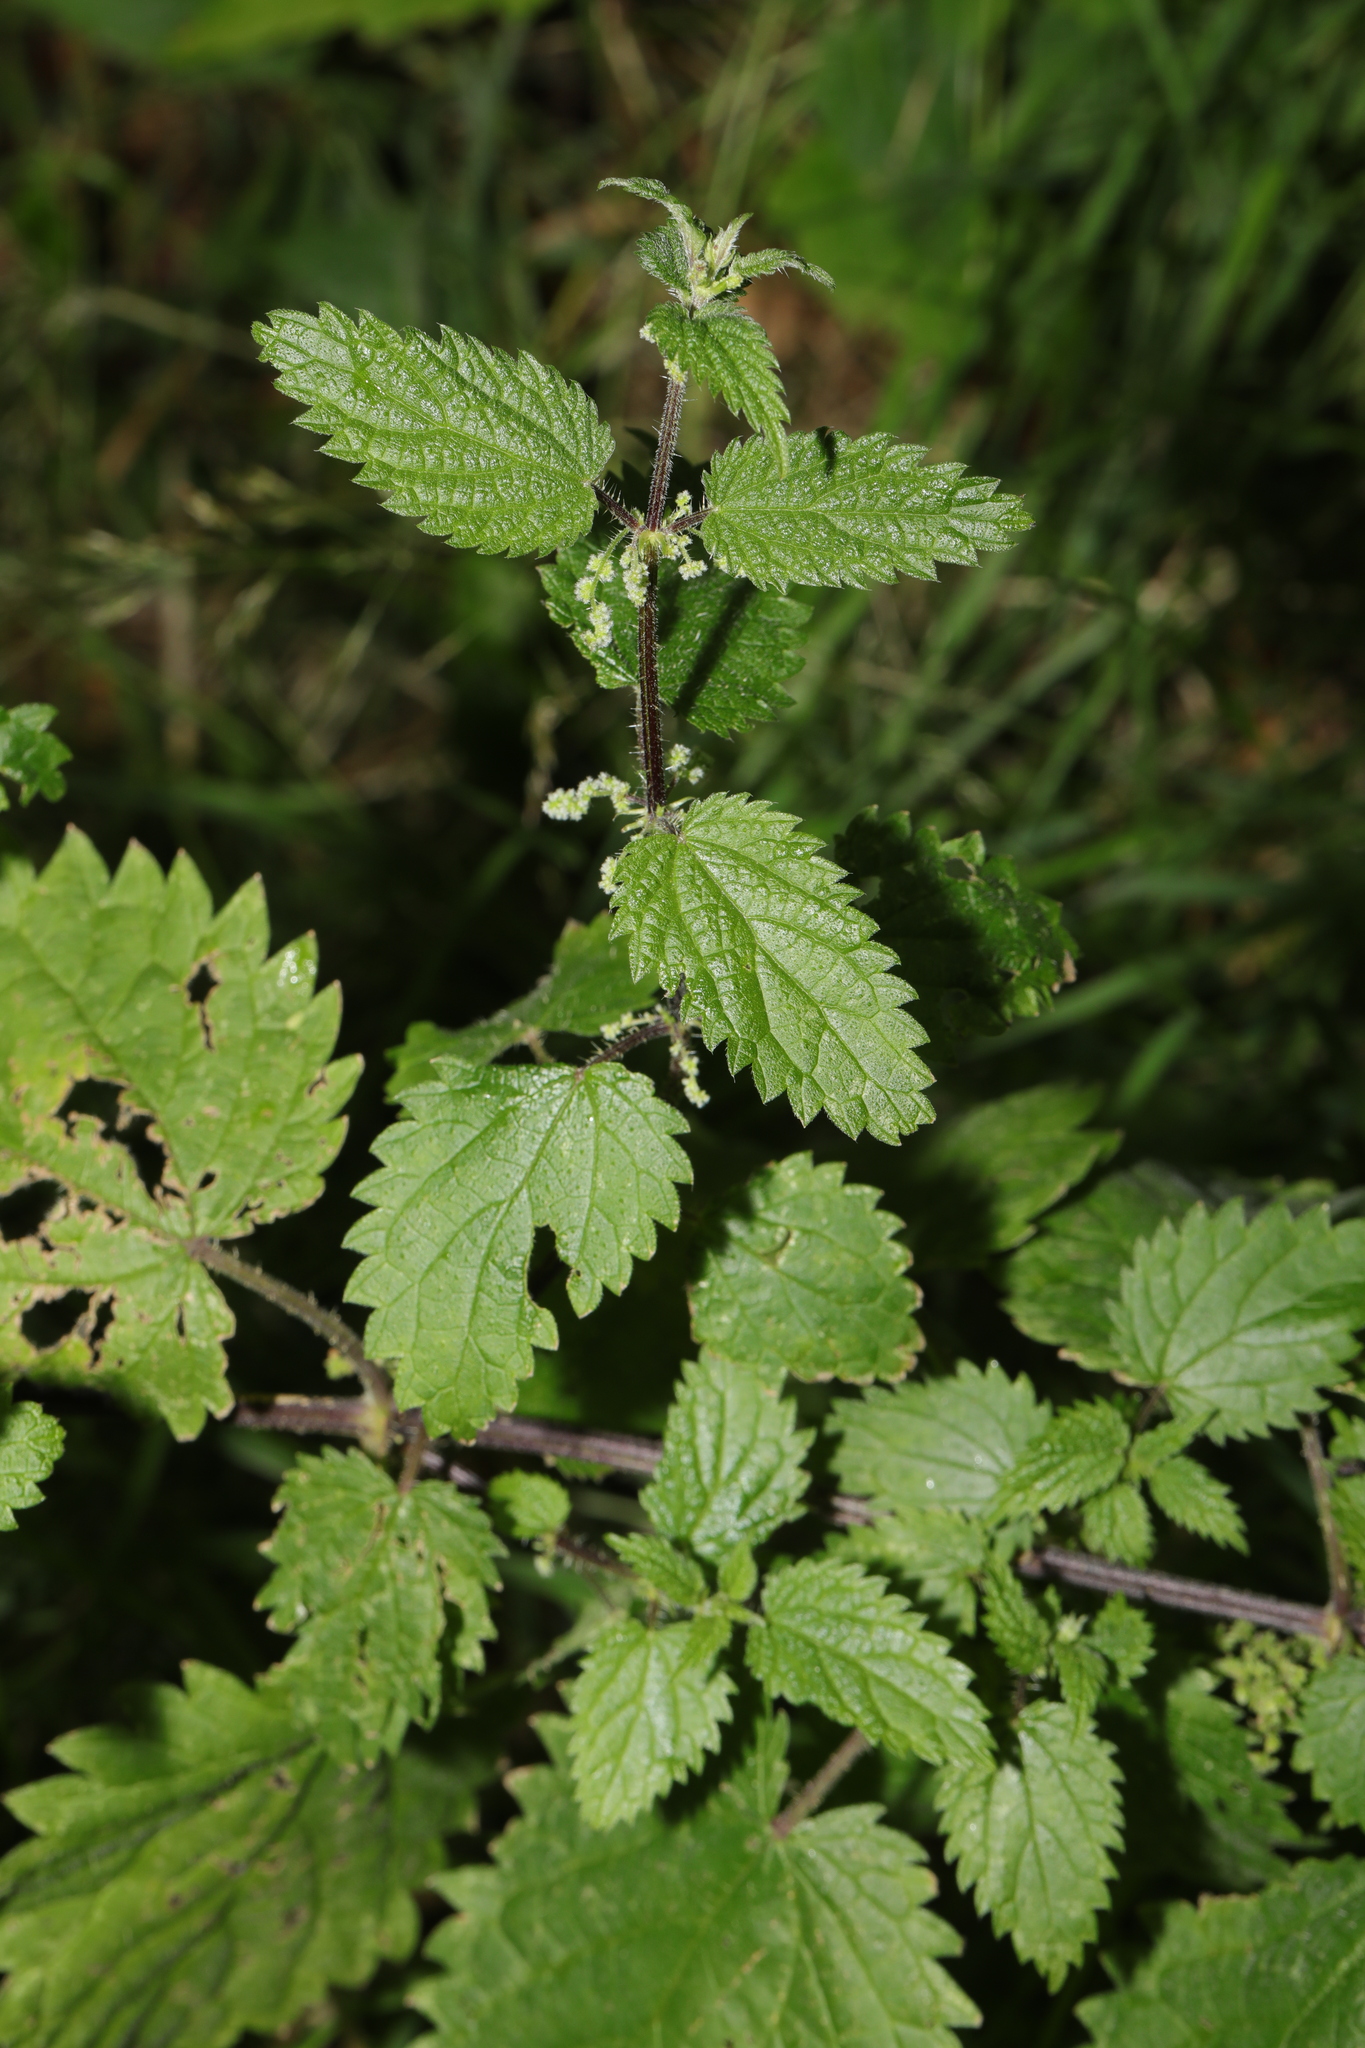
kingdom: Plantae
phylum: Tracheophyta
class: Magnoliopsida
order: Rosales
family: Urticaceae
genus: Urtica
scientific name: Urtica dioica
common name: Common nettle
